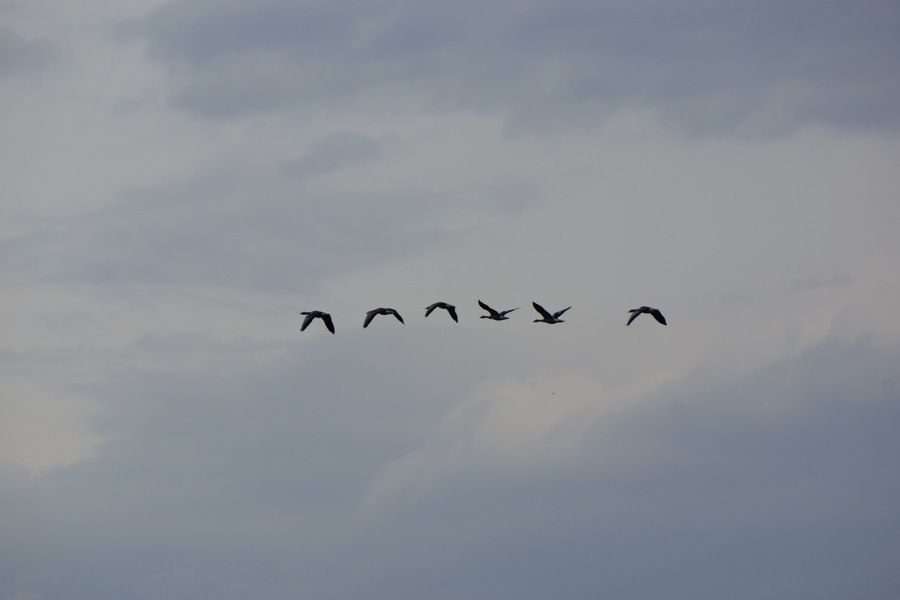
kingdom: Animalia
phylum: Chordata
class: Aves
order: Anseriformes
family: Anatidae
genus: Anser
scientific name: Anser albifrons
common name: Greater white-fronted goose
